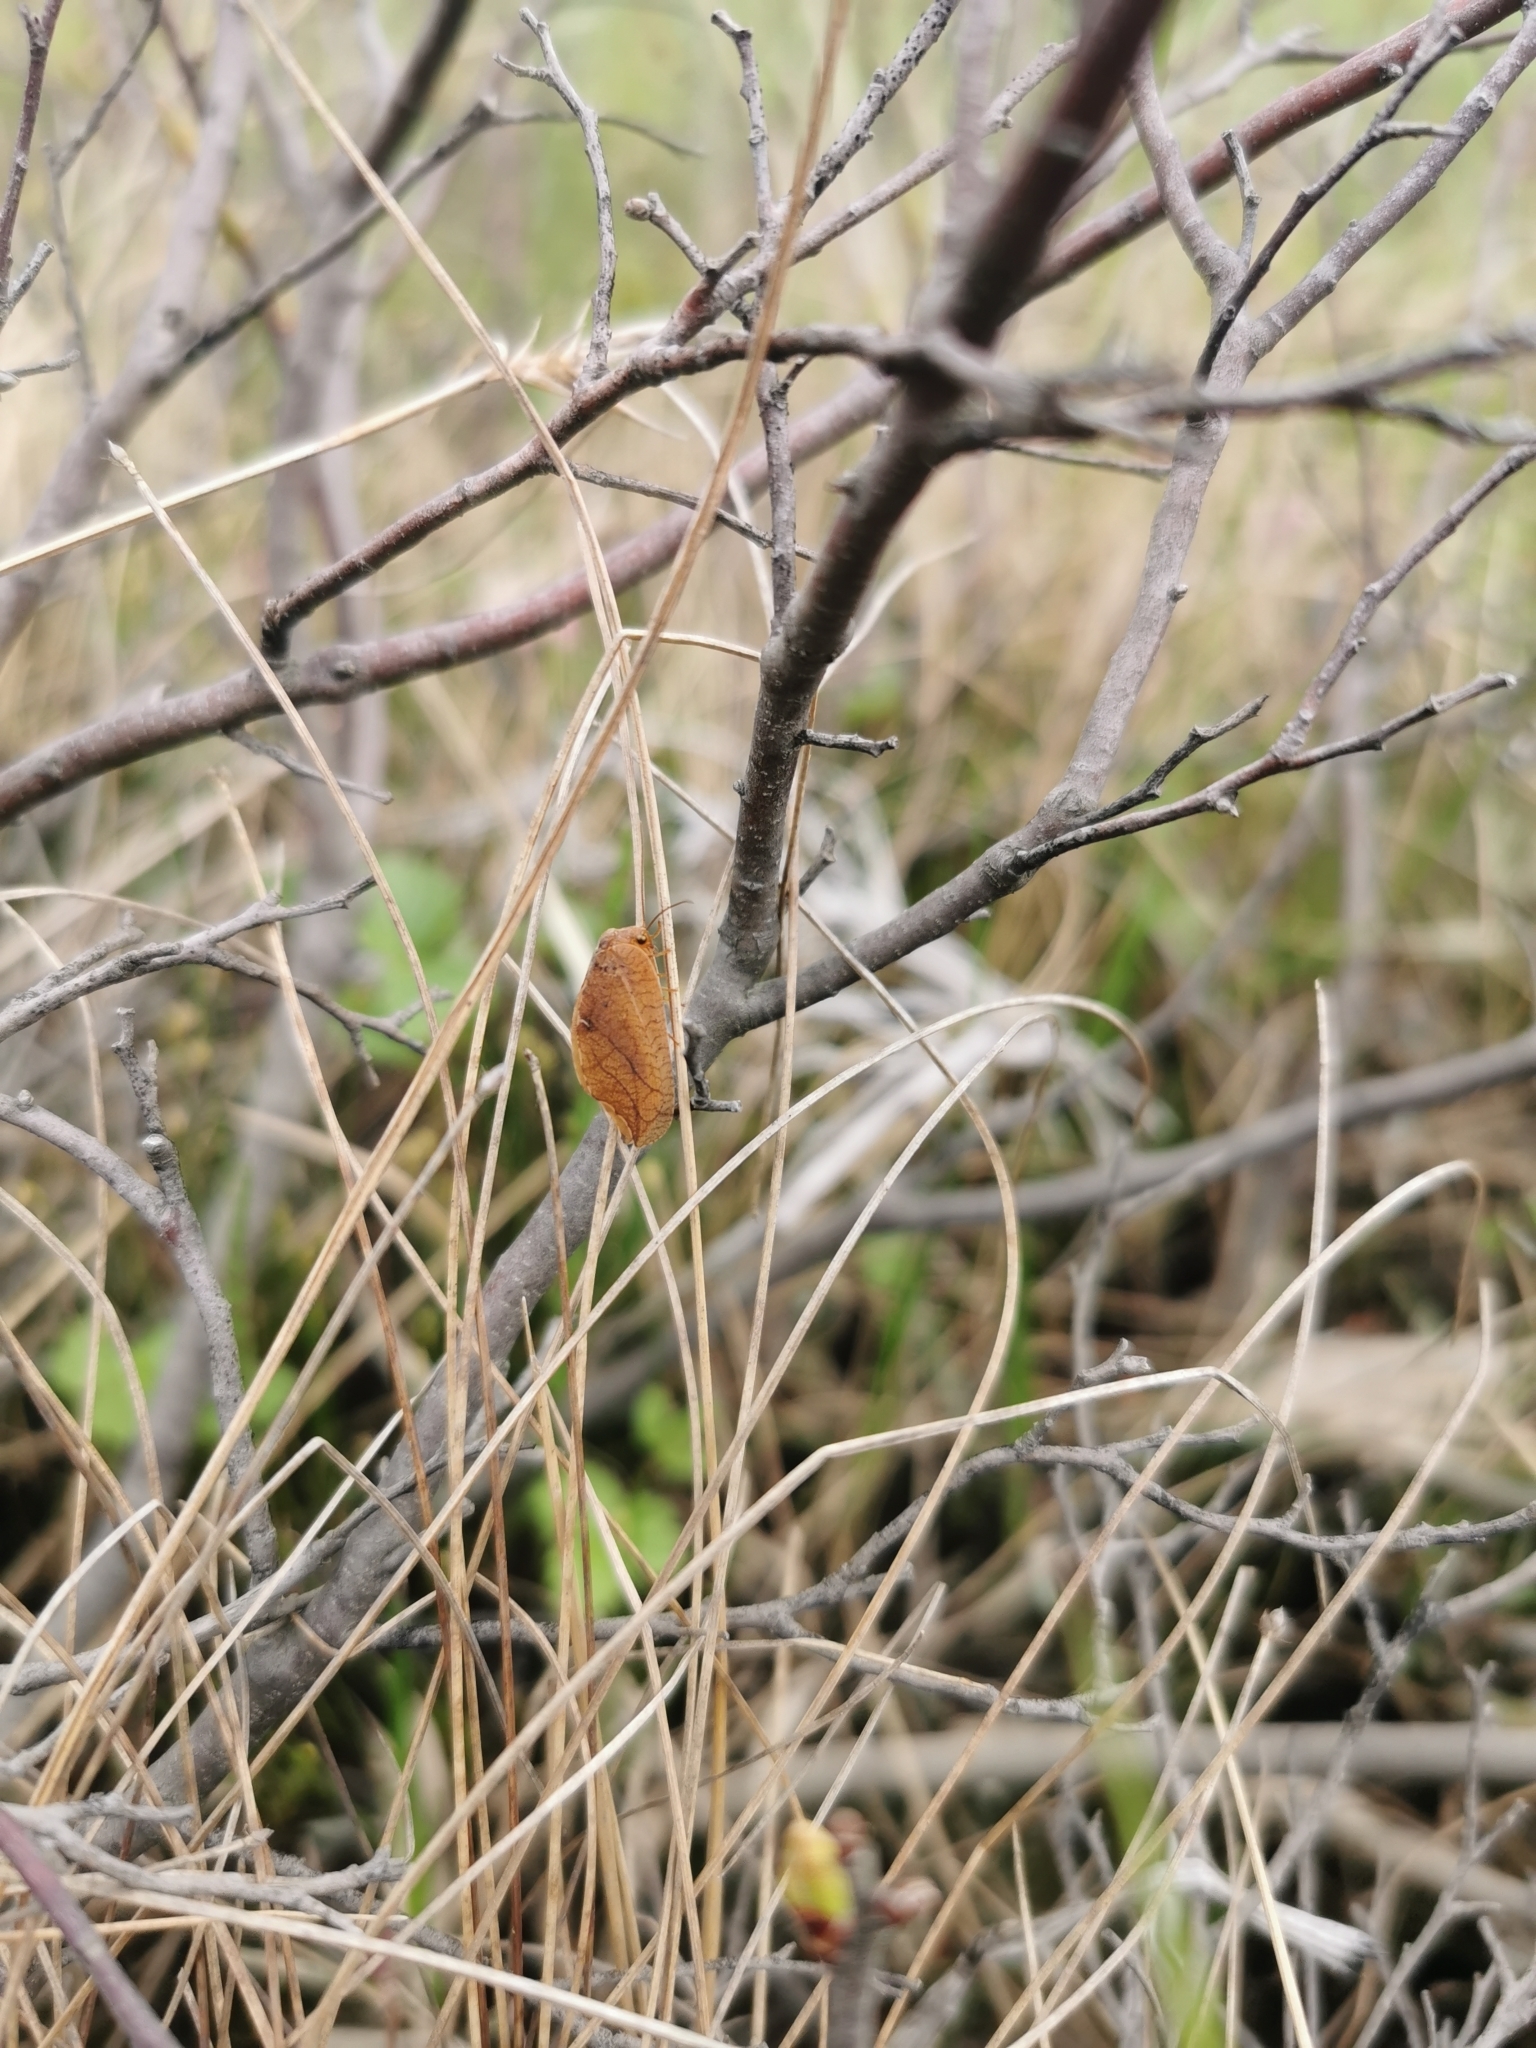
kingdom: Animalia
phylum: Arthropoda
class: Insecta
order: Neuroptera
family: Hemerobiidae
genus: Drepanepteryx
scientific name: Drepanepteryx phalaenoides
